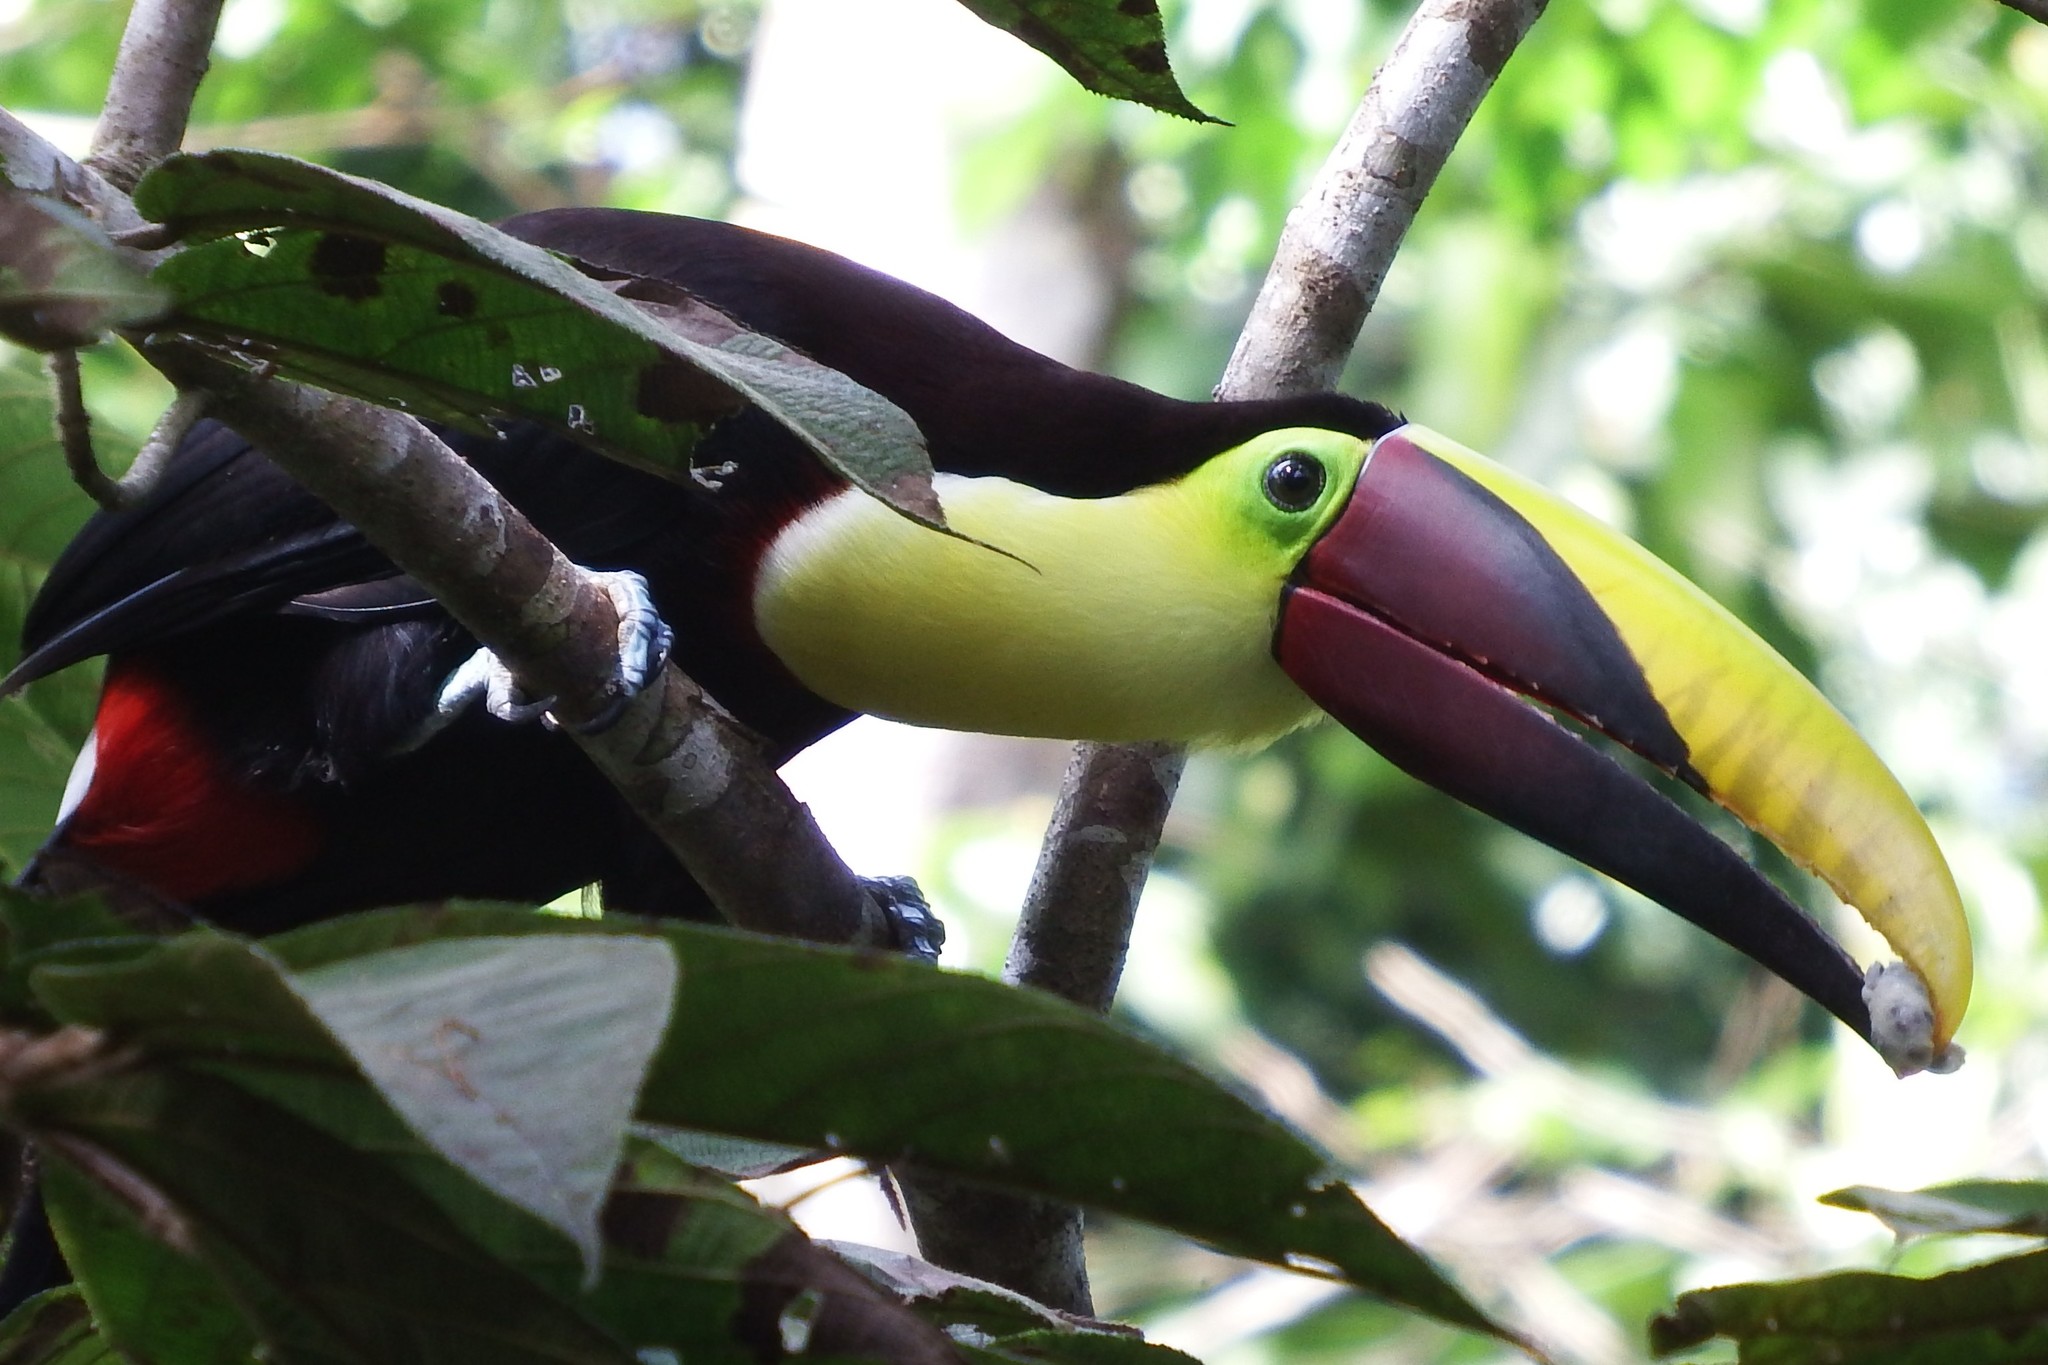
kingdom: Animalia
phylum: Chordata
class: Aves
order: Piciformes
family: Ramphastidae
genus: Ramphastos
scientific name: Ramphastos ambiguus
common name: Yellow-throated toucan
